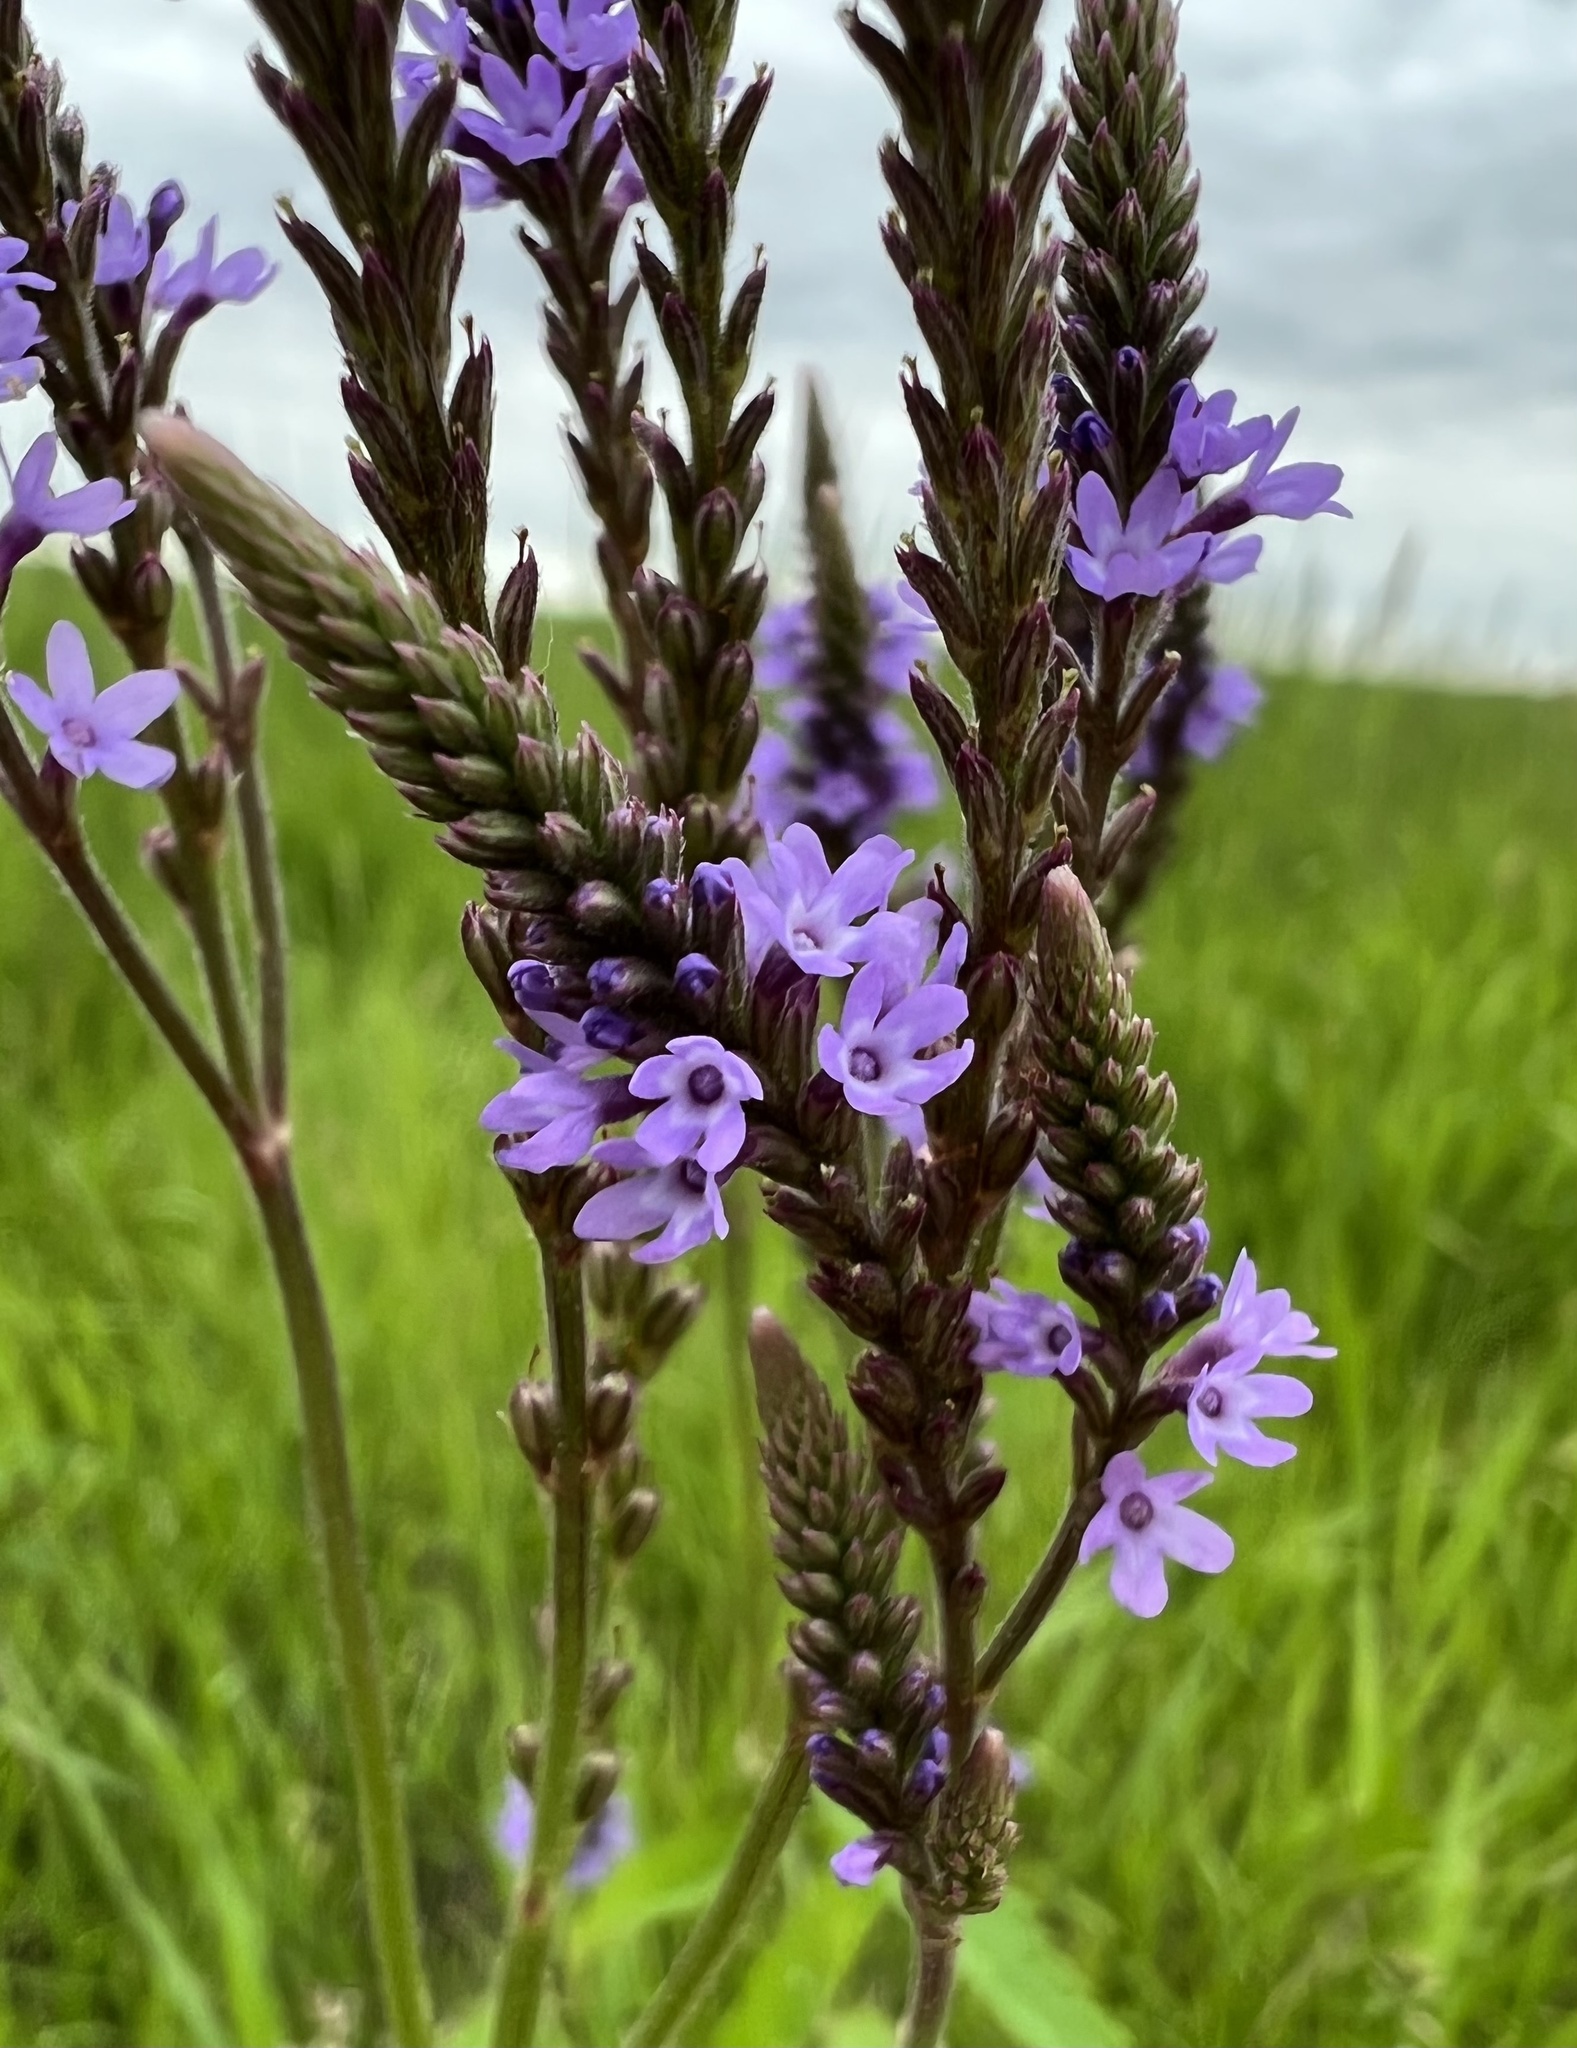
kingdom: Plantae
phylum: Tracheophyta
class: Magnoliopsida
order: Lamiales
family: Verbenaceae
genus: Verbena
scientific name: Verbena hastata
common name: American blue vervain
